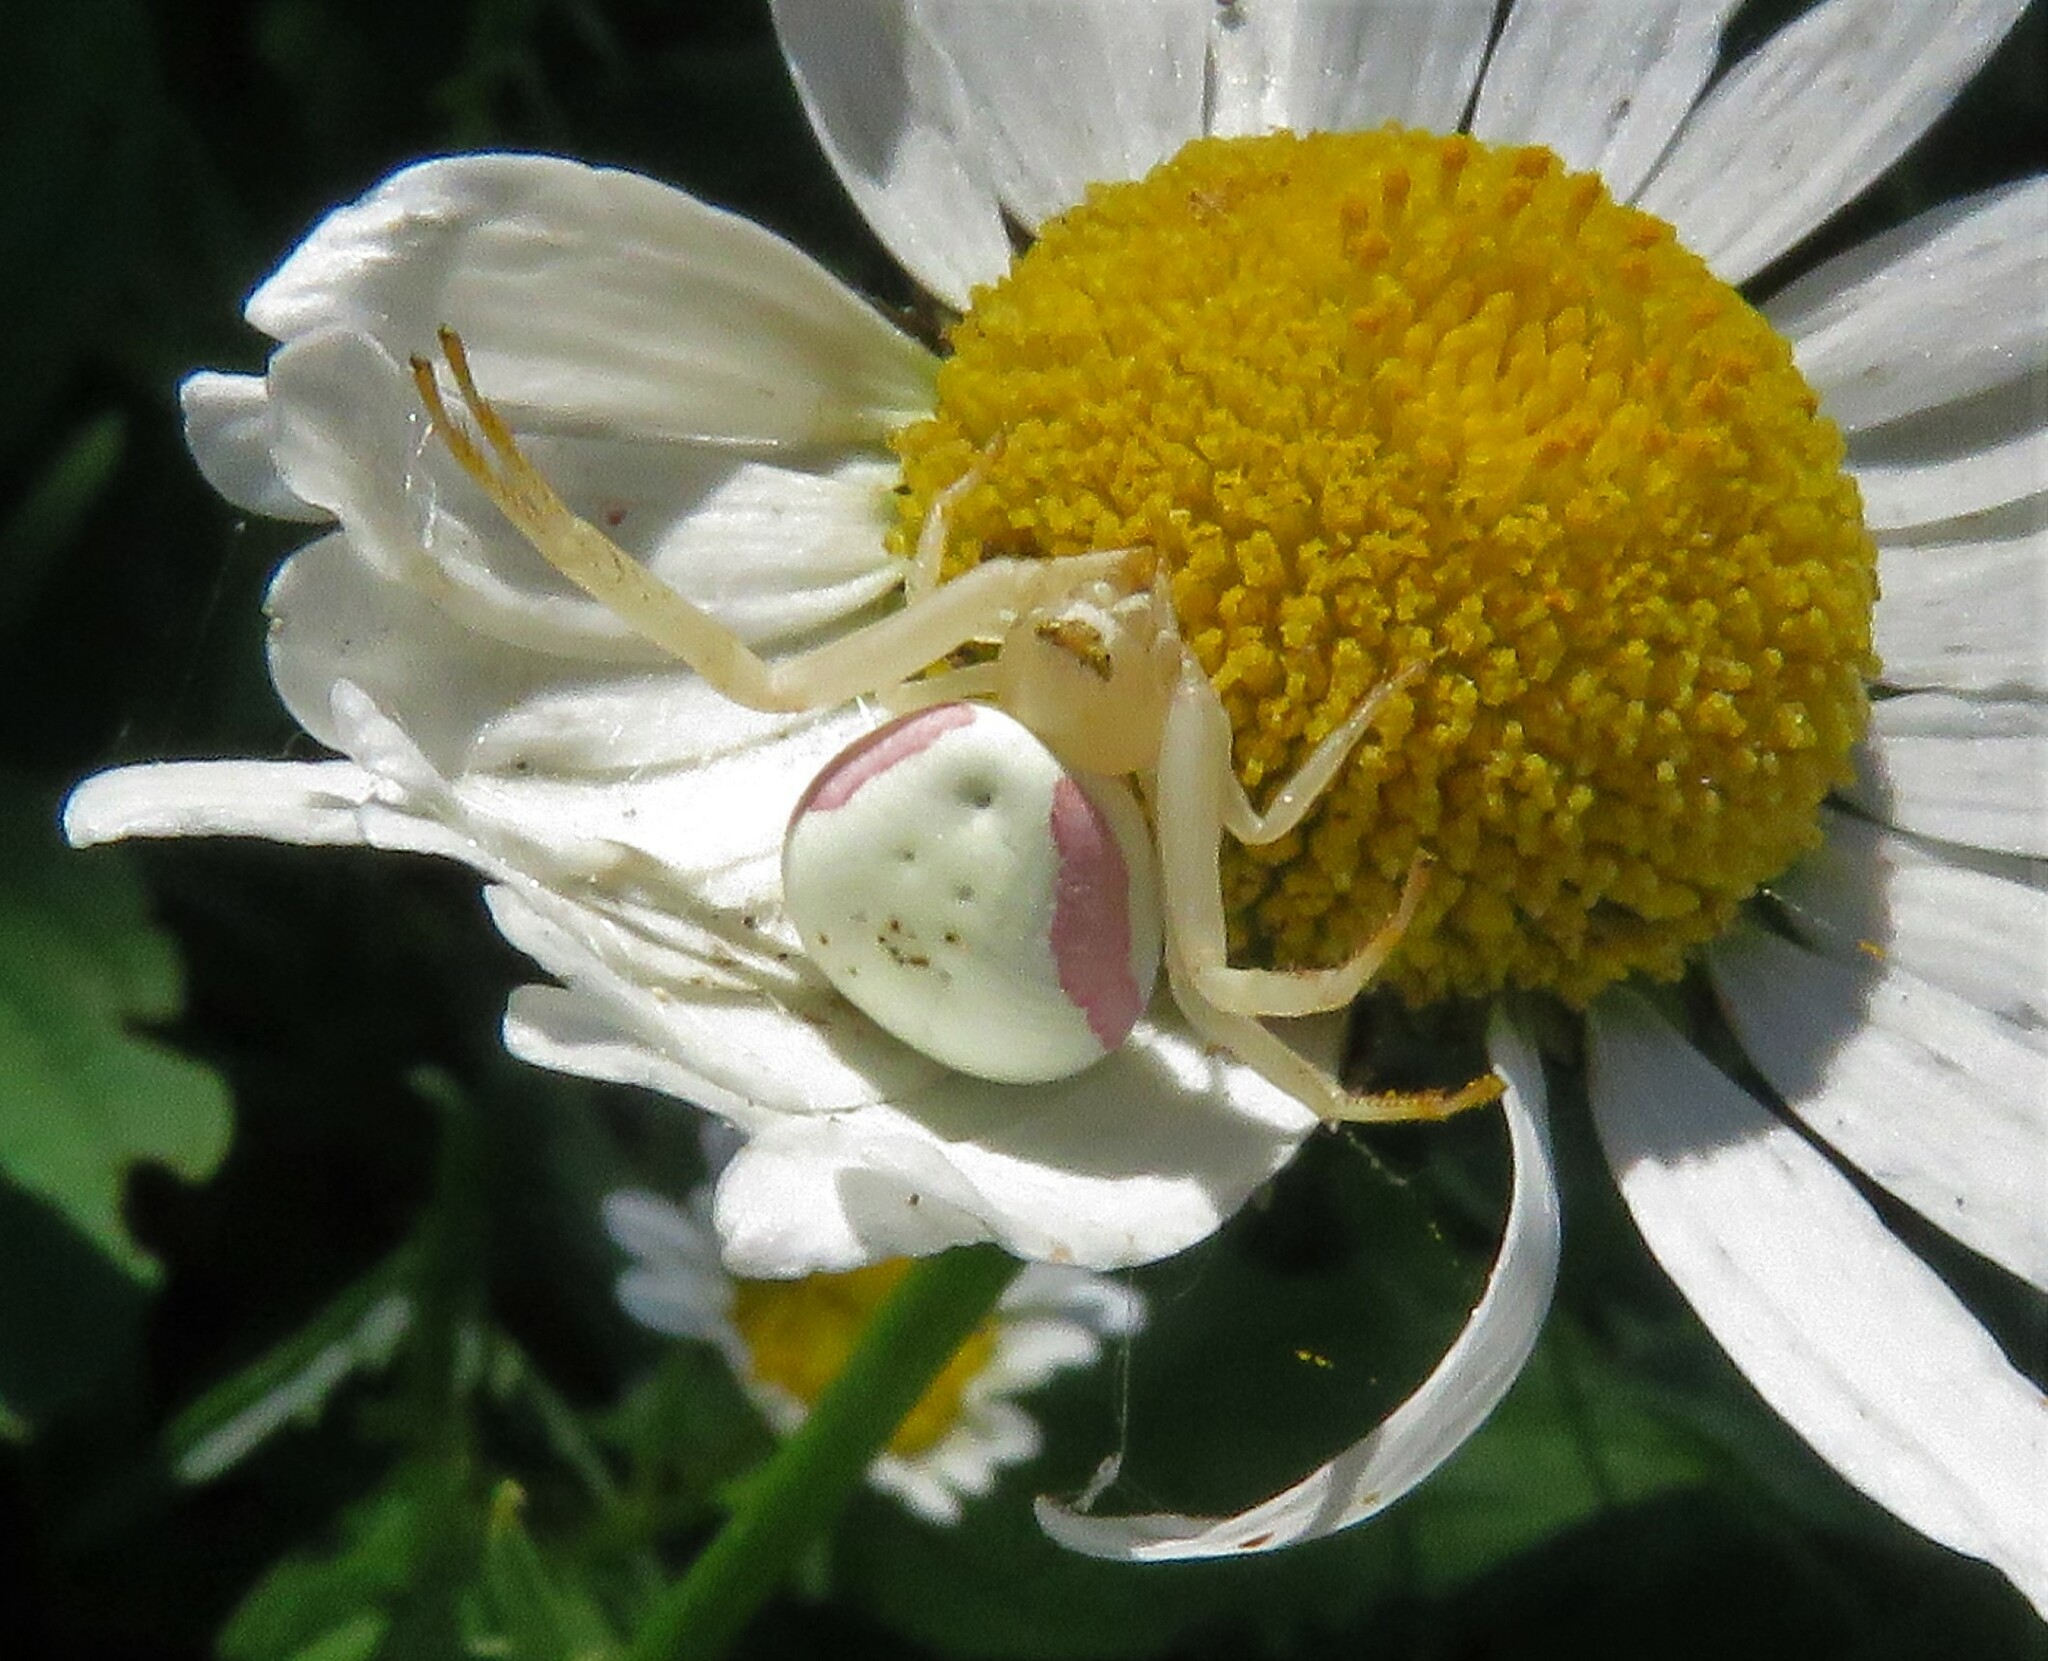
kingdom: Animalia
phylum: Arthropoda
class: Arachnida
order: Araneae
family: Thomisidae
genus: Misumena
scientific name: Misumena vatia
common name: Goldenrod crab spider
